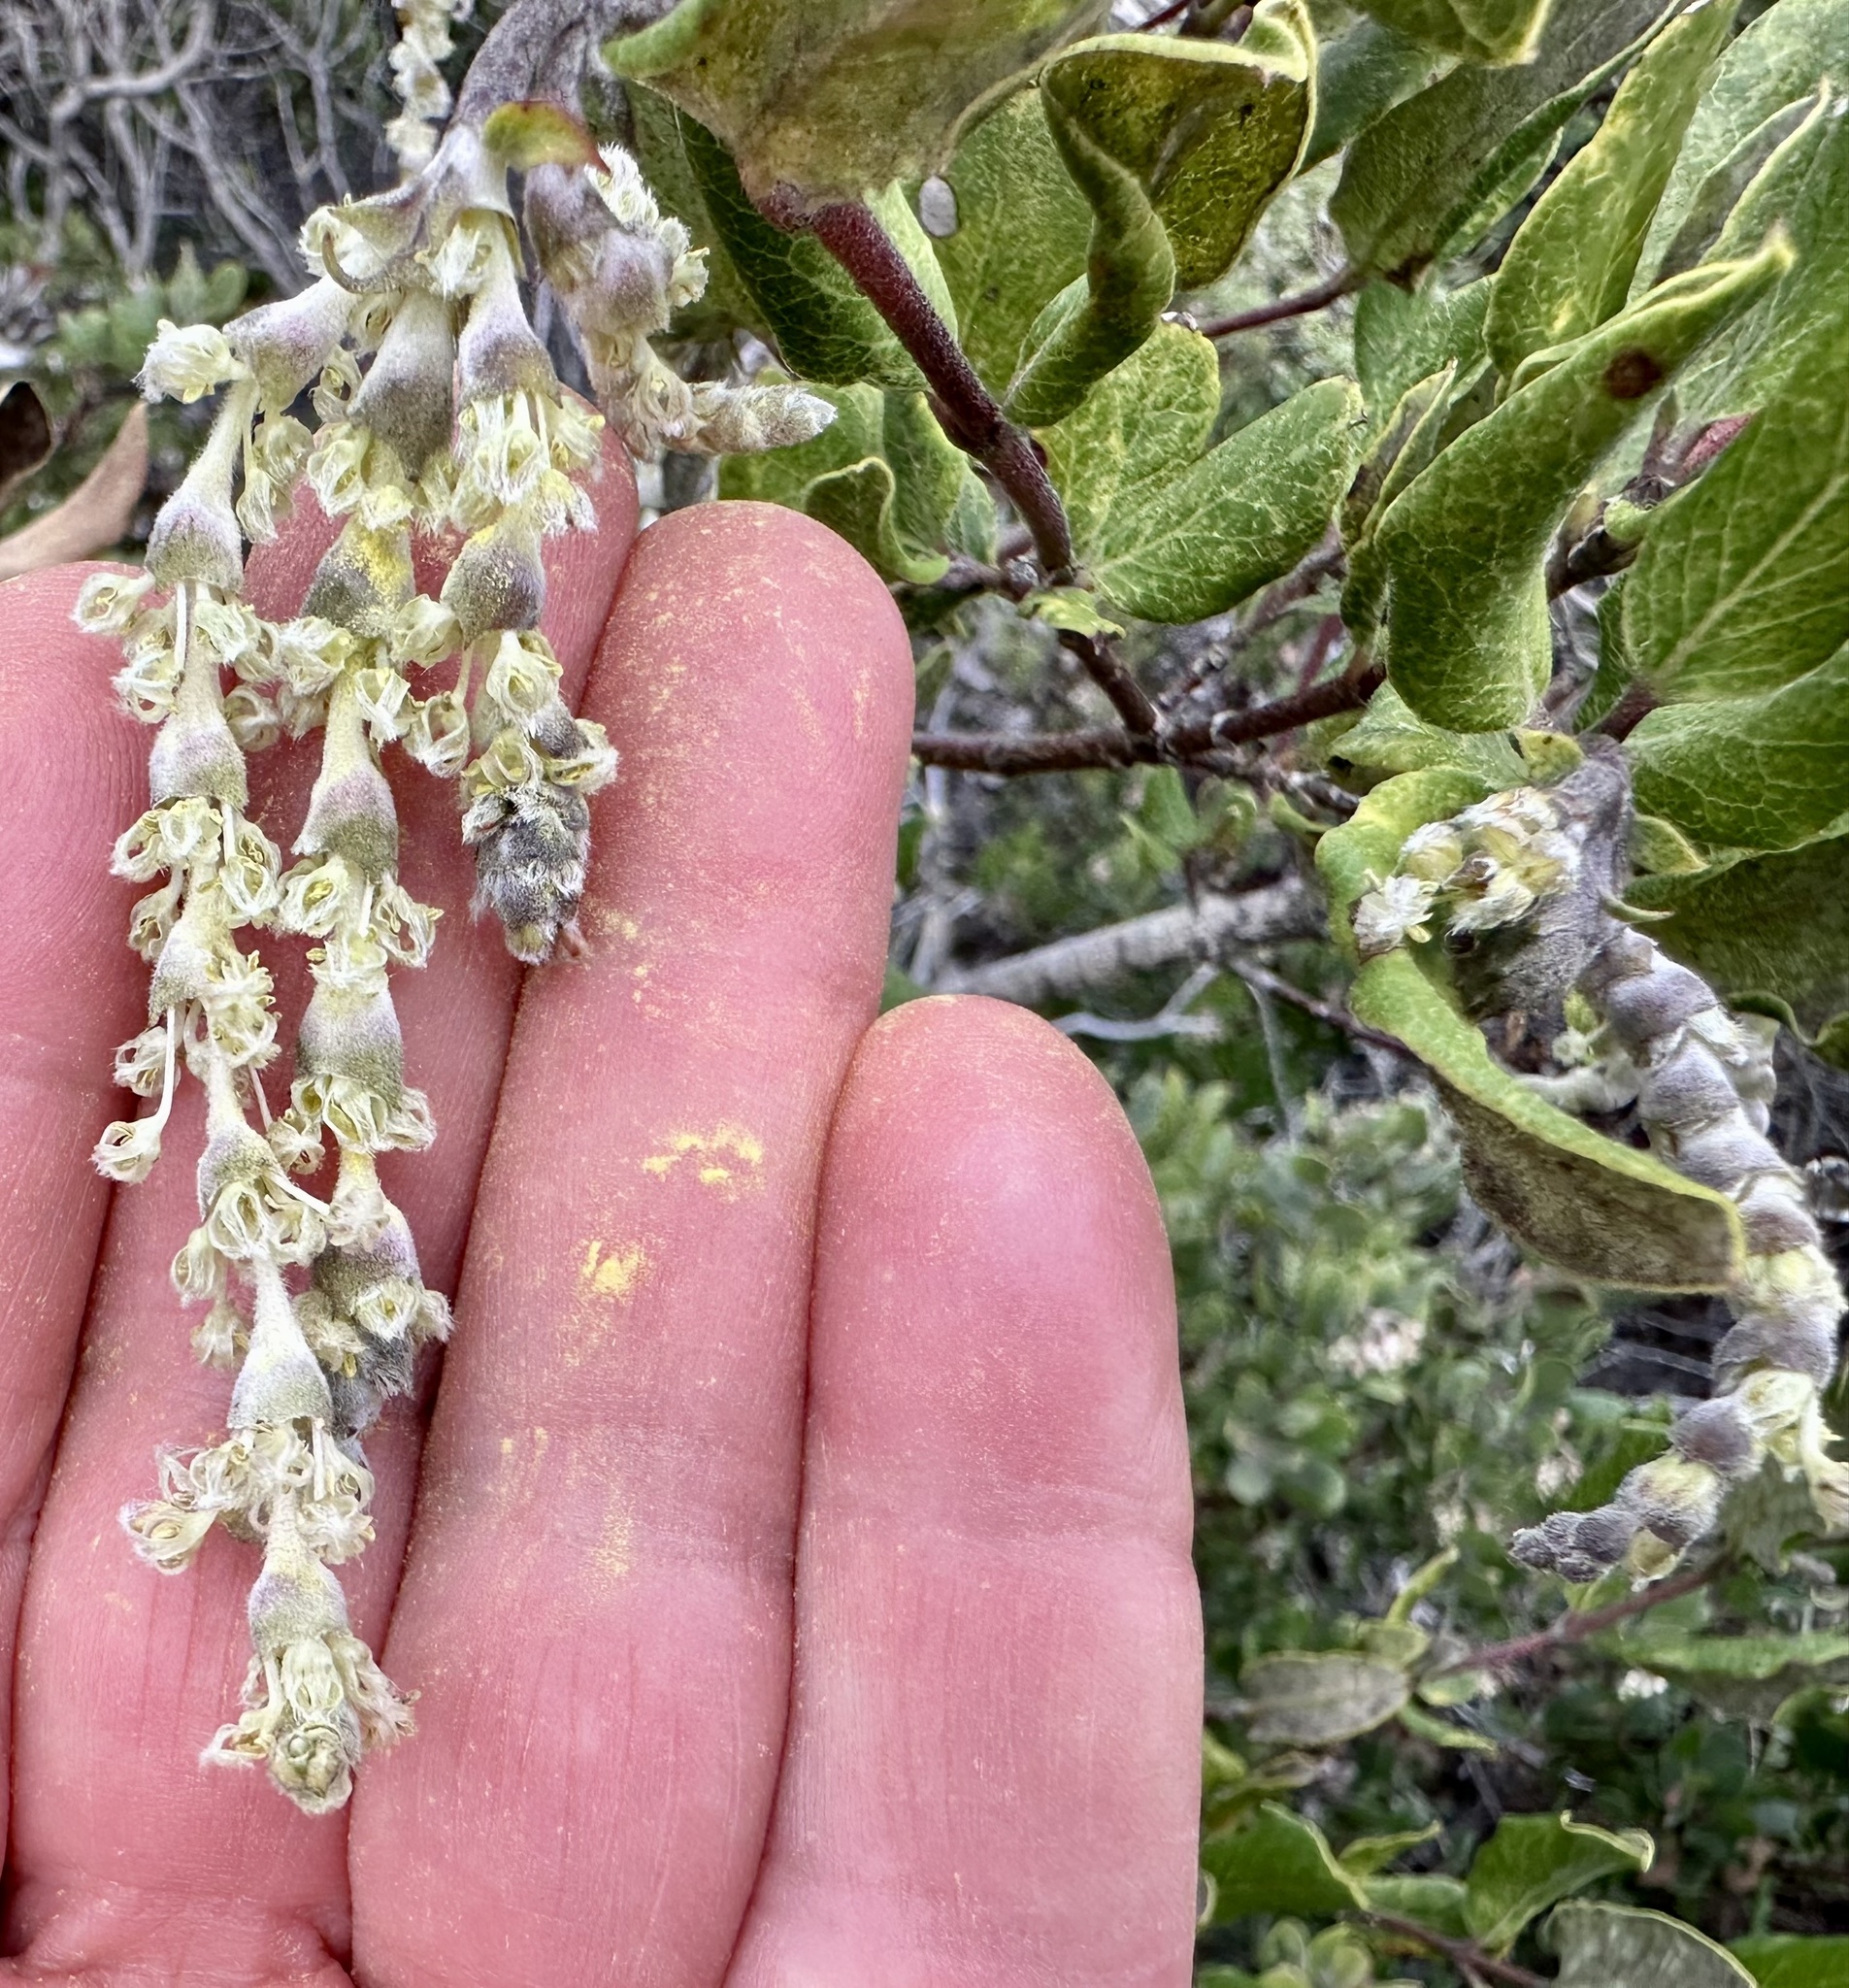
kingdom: Plantae
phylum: Tracheophyta
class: Magnoliopsida
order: Garryales
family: Garryaceae
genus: Garrya
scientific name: Garrya elliptica
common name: Silk-tassel
